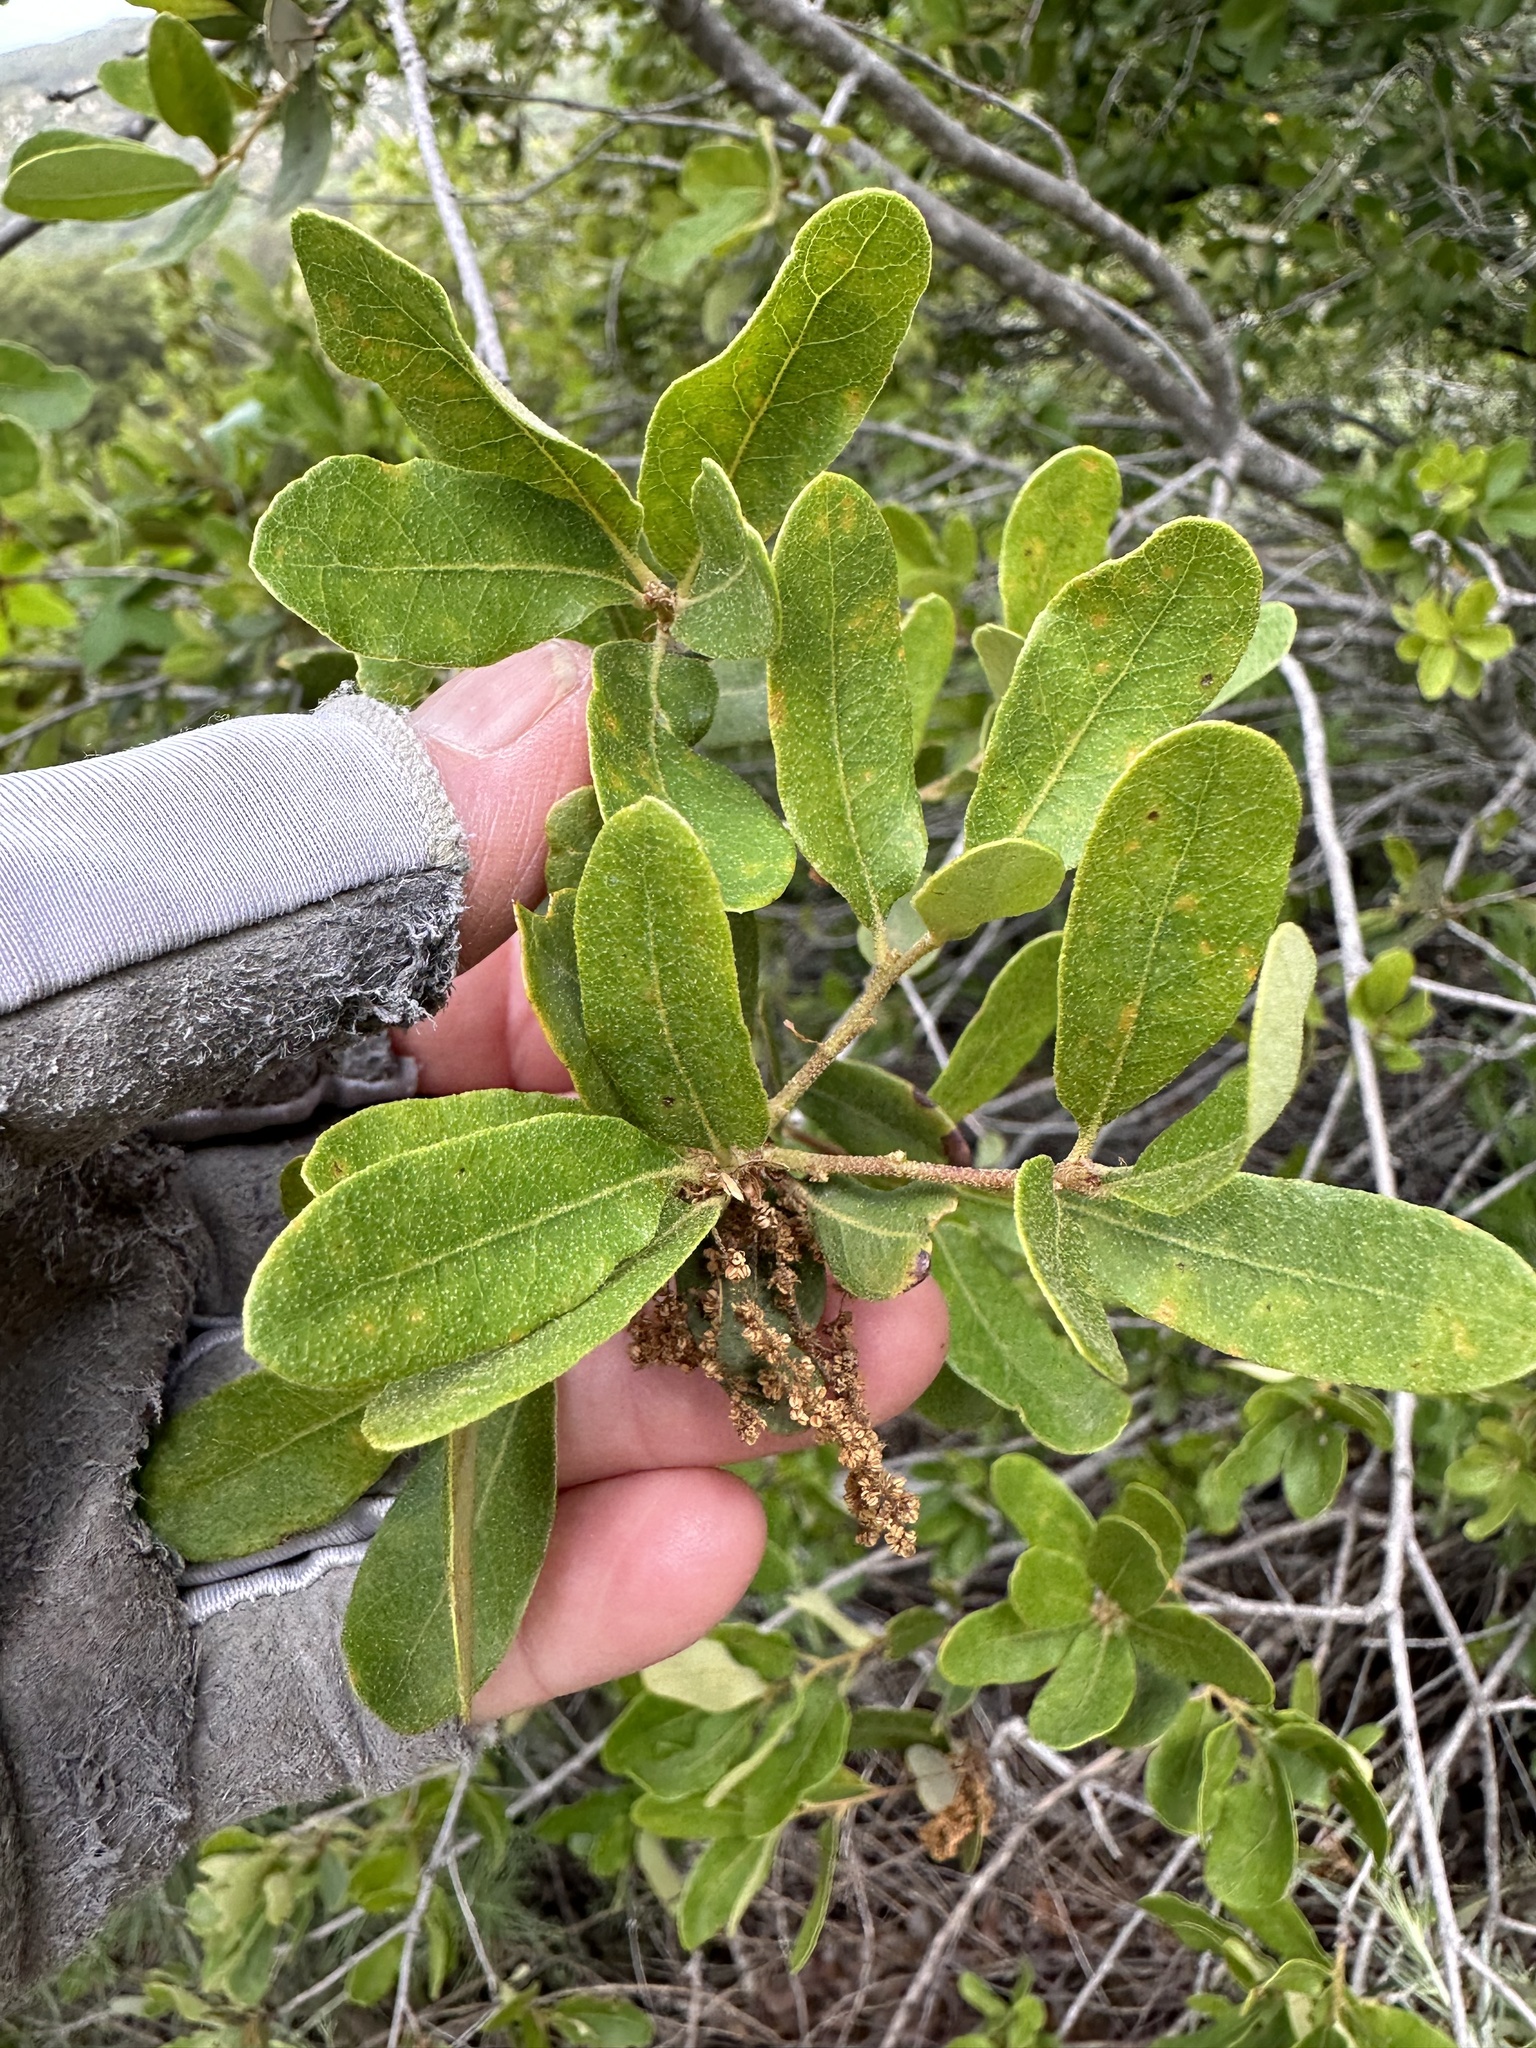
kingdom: Plantae
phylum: Tracheophyta
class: Magnoliopsida
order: Fagales
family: Fagaceae
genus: Quercus
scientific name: Quercus engelmannii
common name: Engelmann oak
